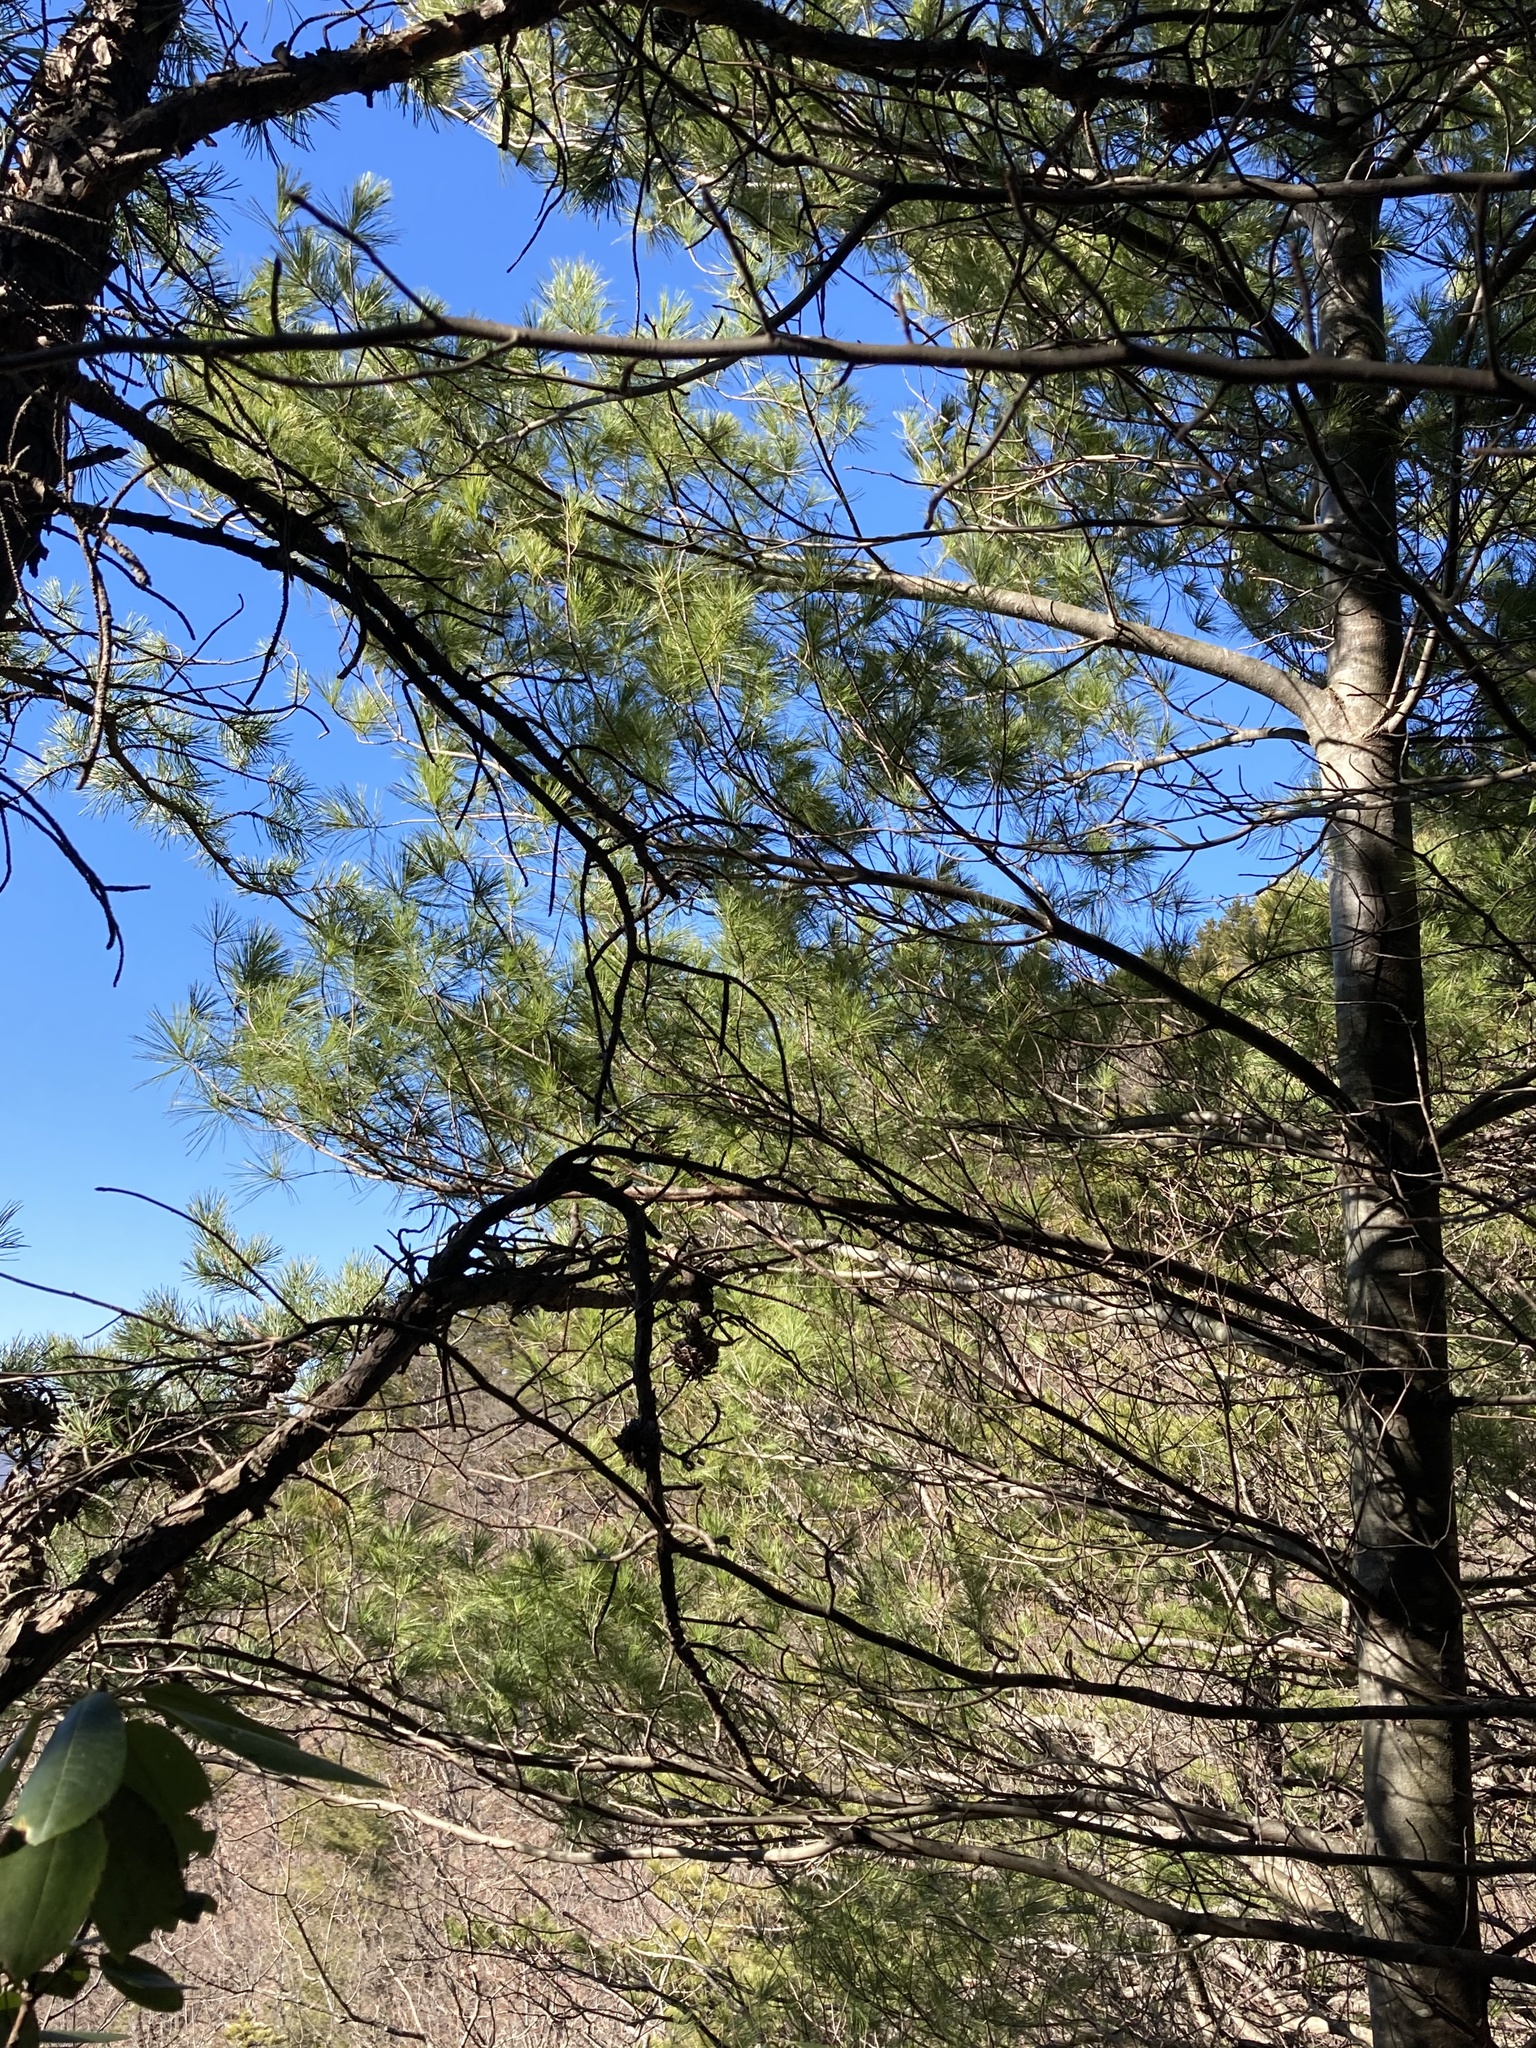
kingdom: Plantae
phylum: Tracheophyta
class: Pinopsida
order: Pinales
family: Pinaceae
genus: Pinus
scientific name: Pinus strobus
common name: Weymouth pine
